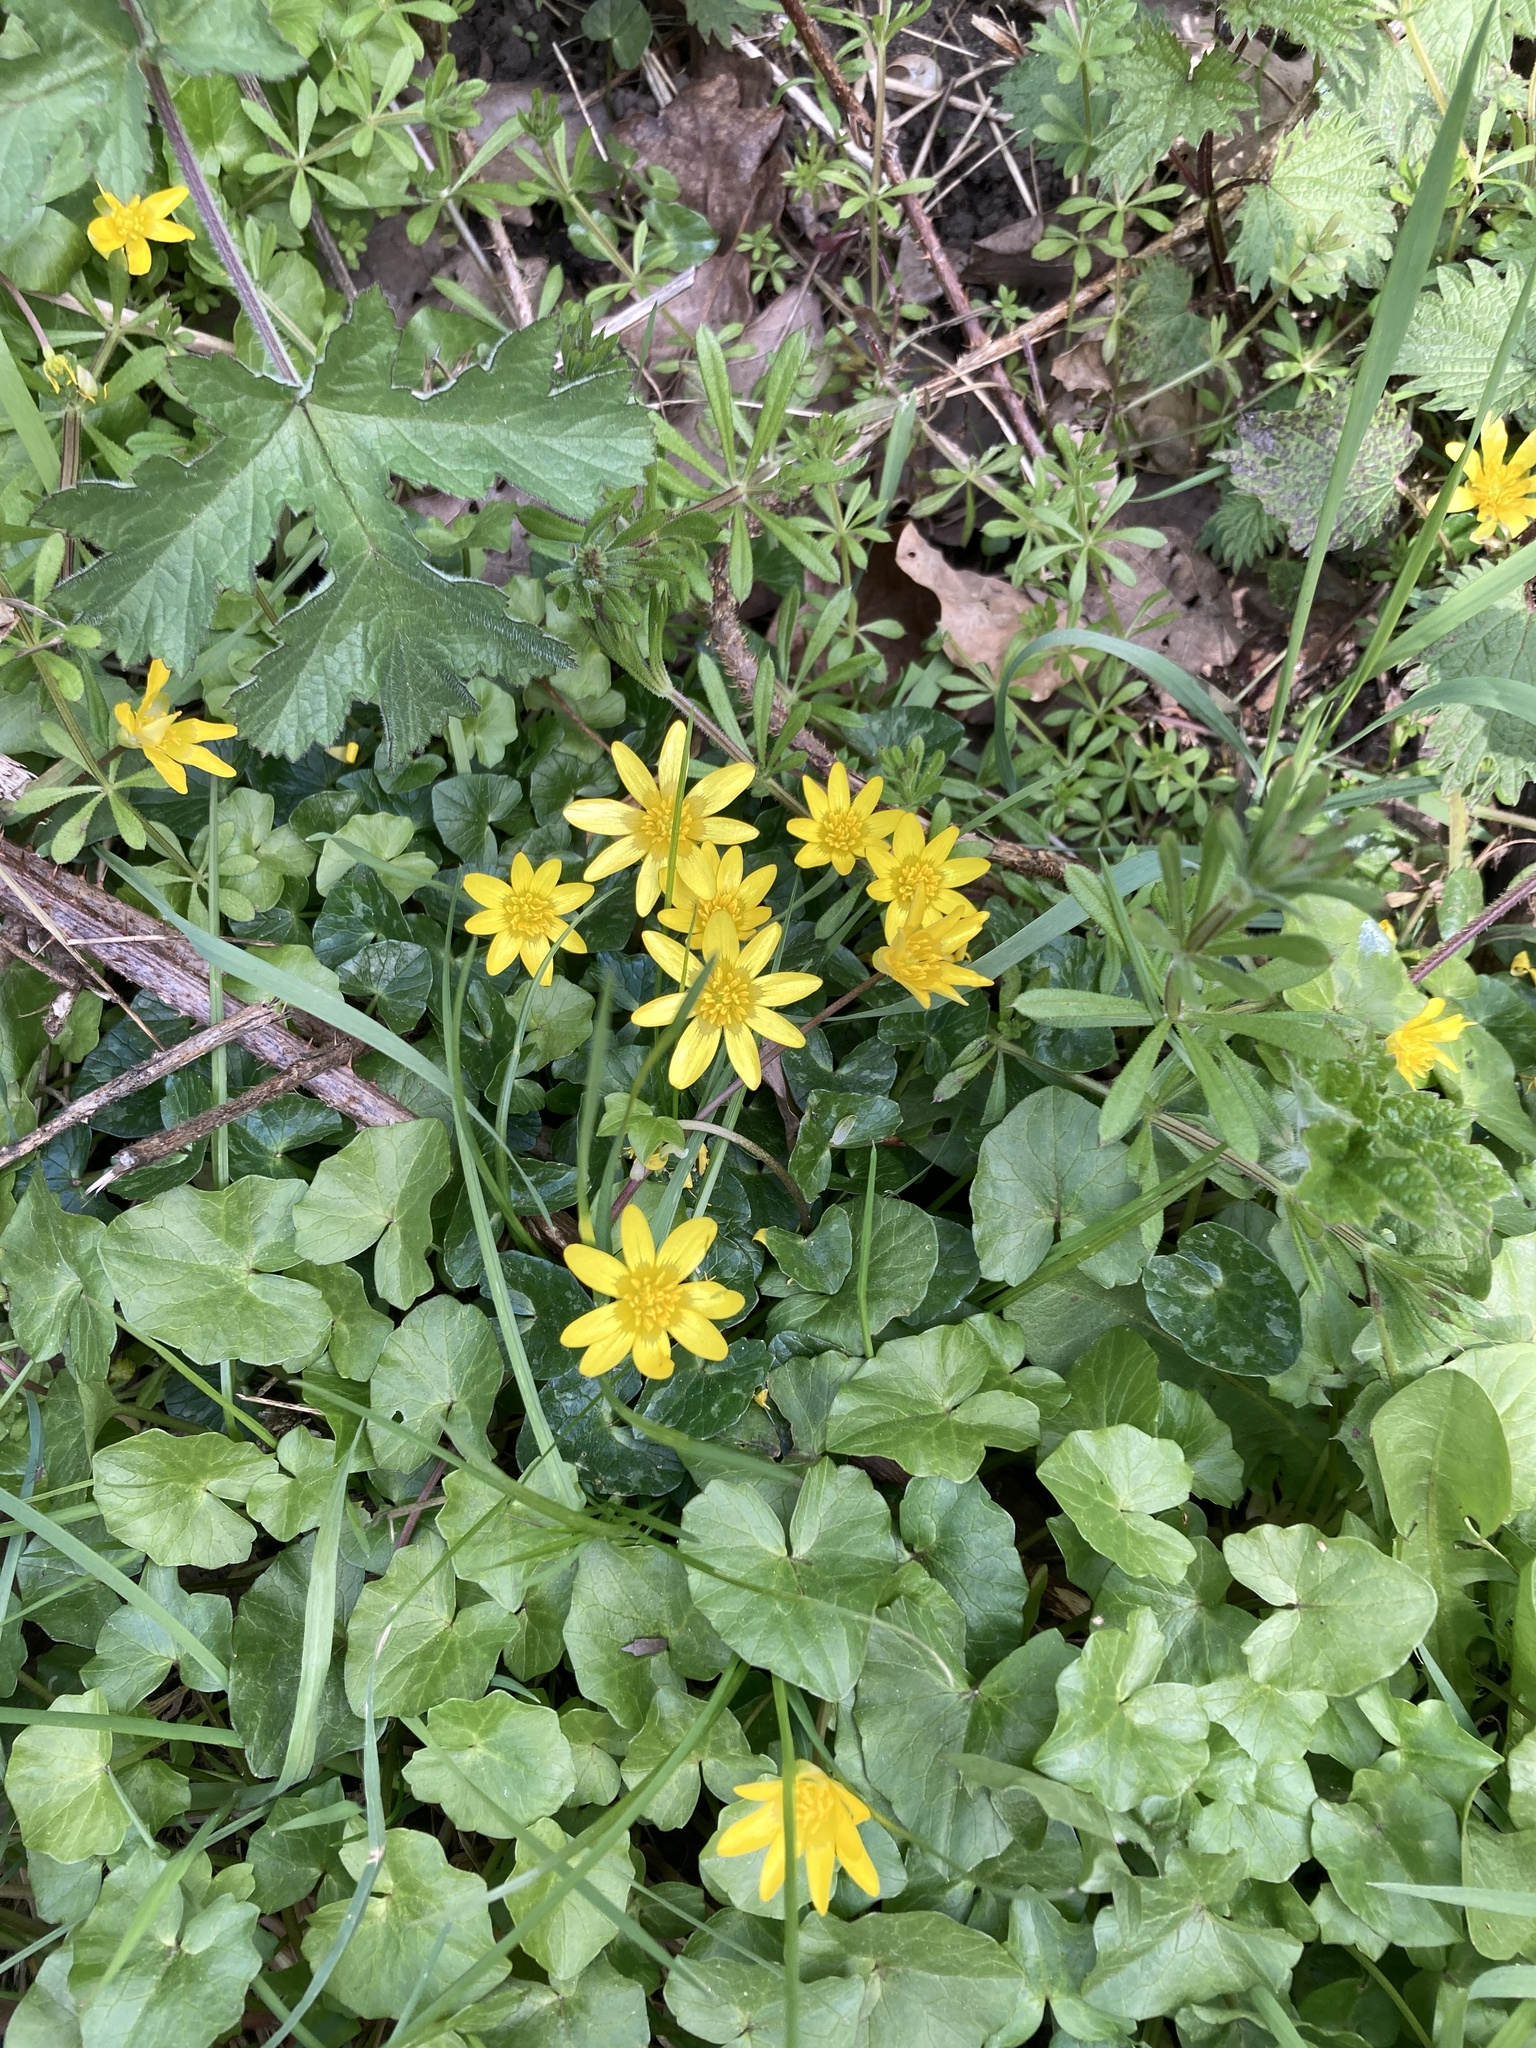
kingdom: Plantae
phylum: Tracheophyta
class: Magnoliopsida
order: Ranunculales
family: Ranunculaceae
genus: Ficaria
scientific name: Ficaria verna
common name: Lesser celandine
